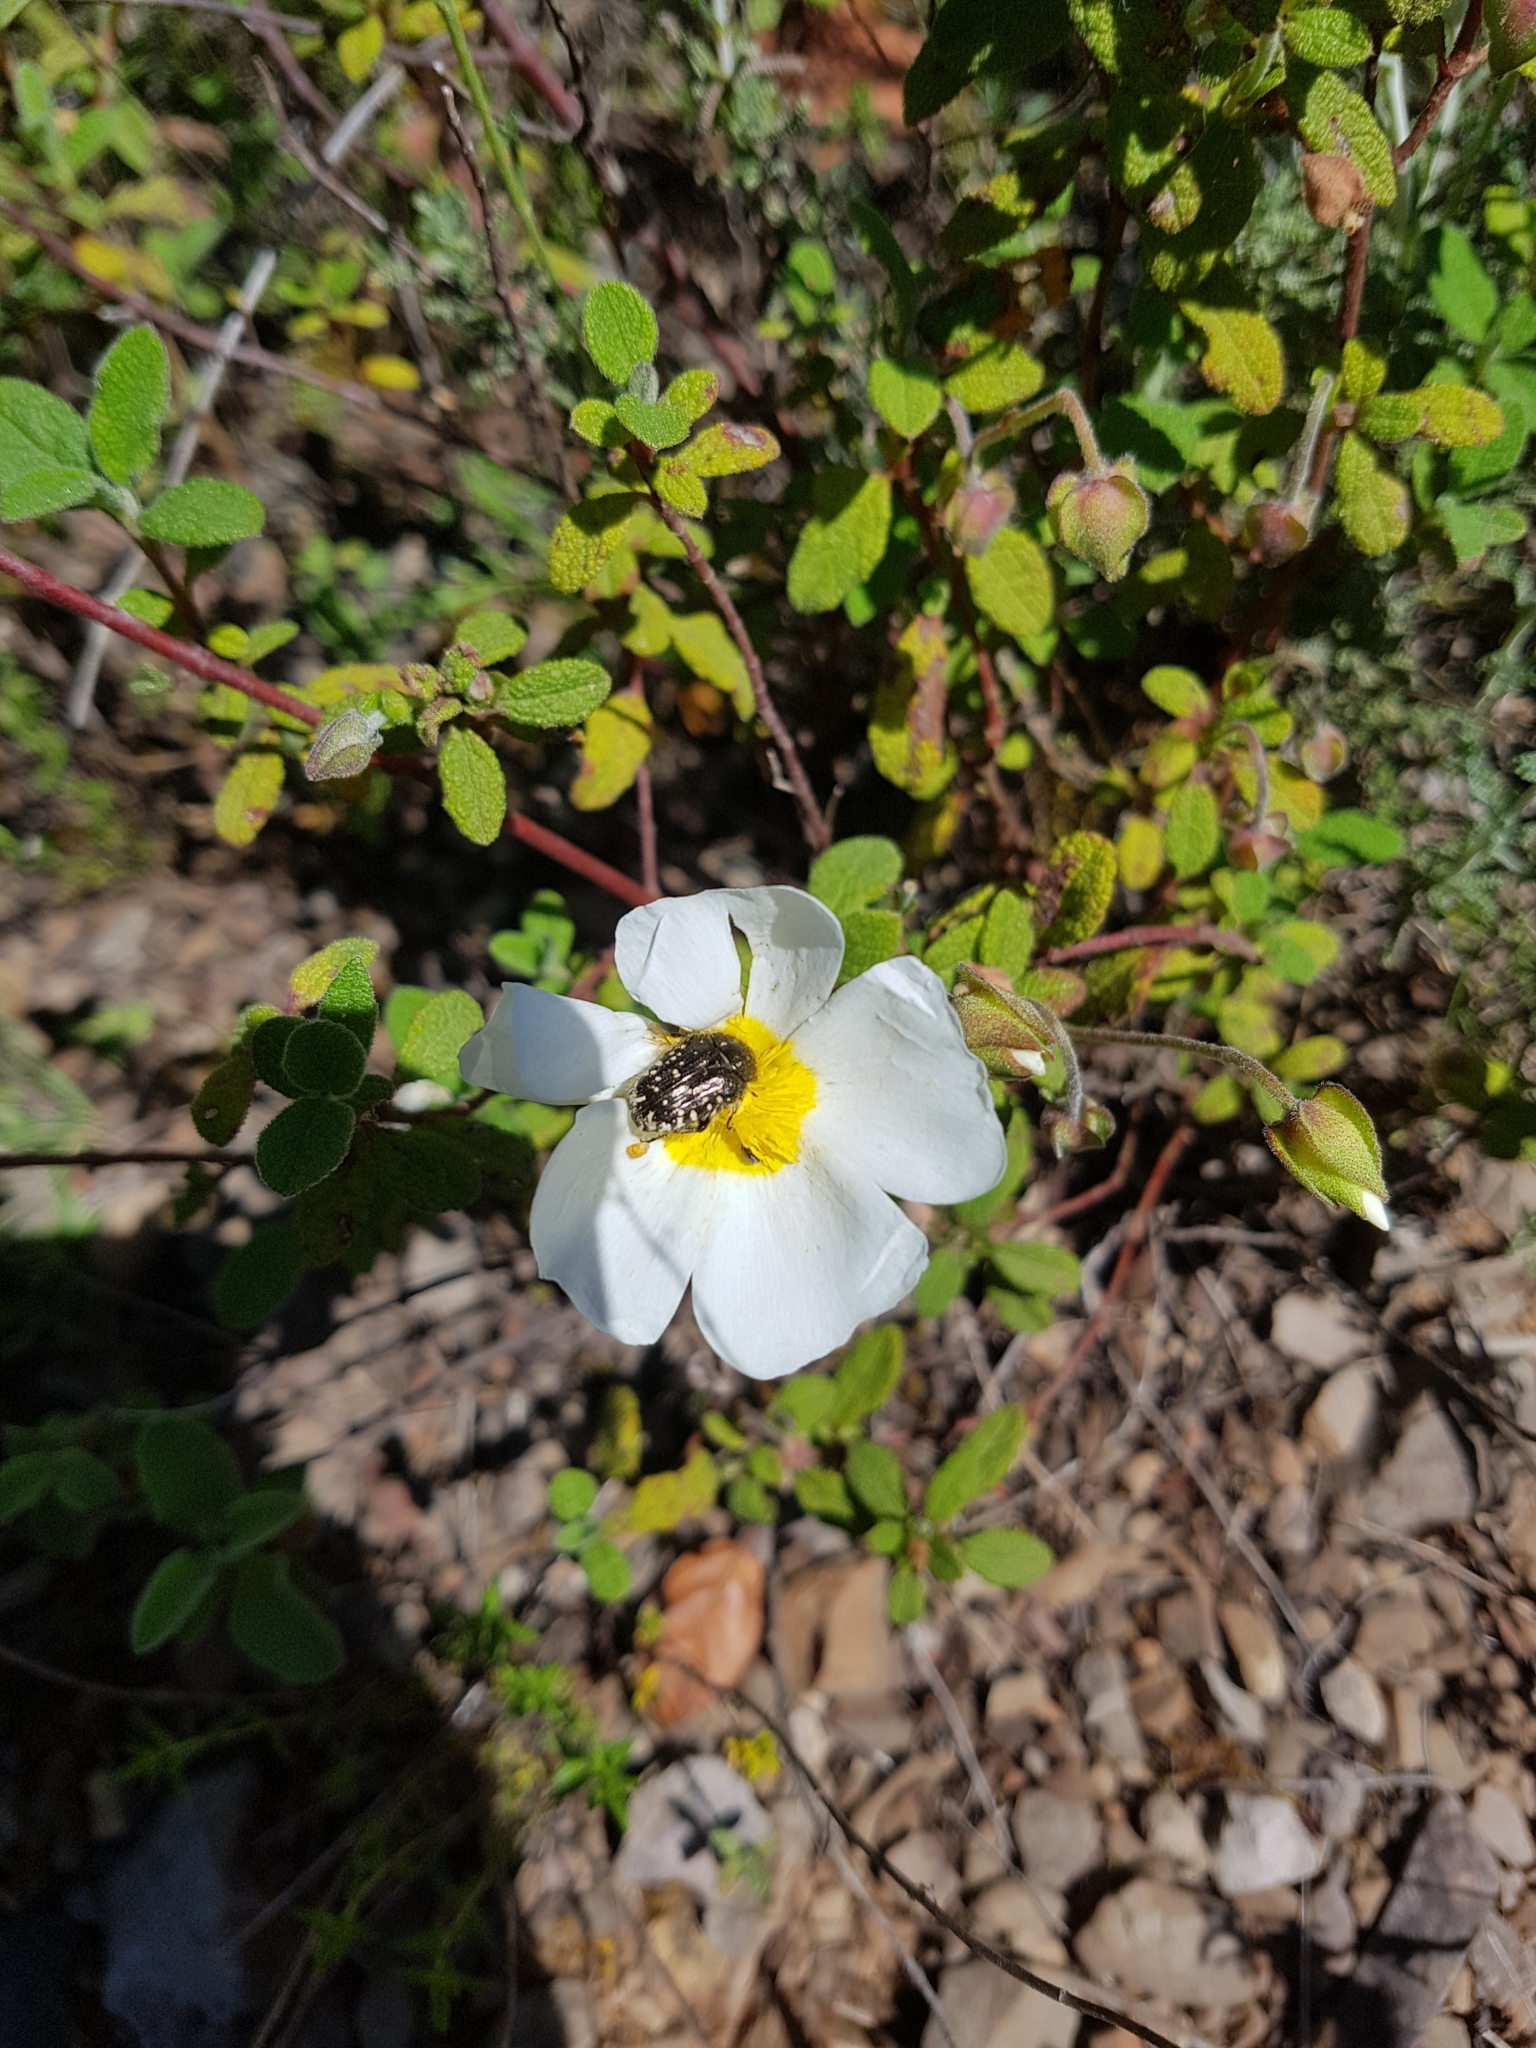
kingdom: Plantae
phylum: Tracheophyta
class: Magnoliopsida
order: Malvales
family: Cistaceae
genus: Cistus
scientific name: Cistus salviifolius
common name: Salvia cistus
